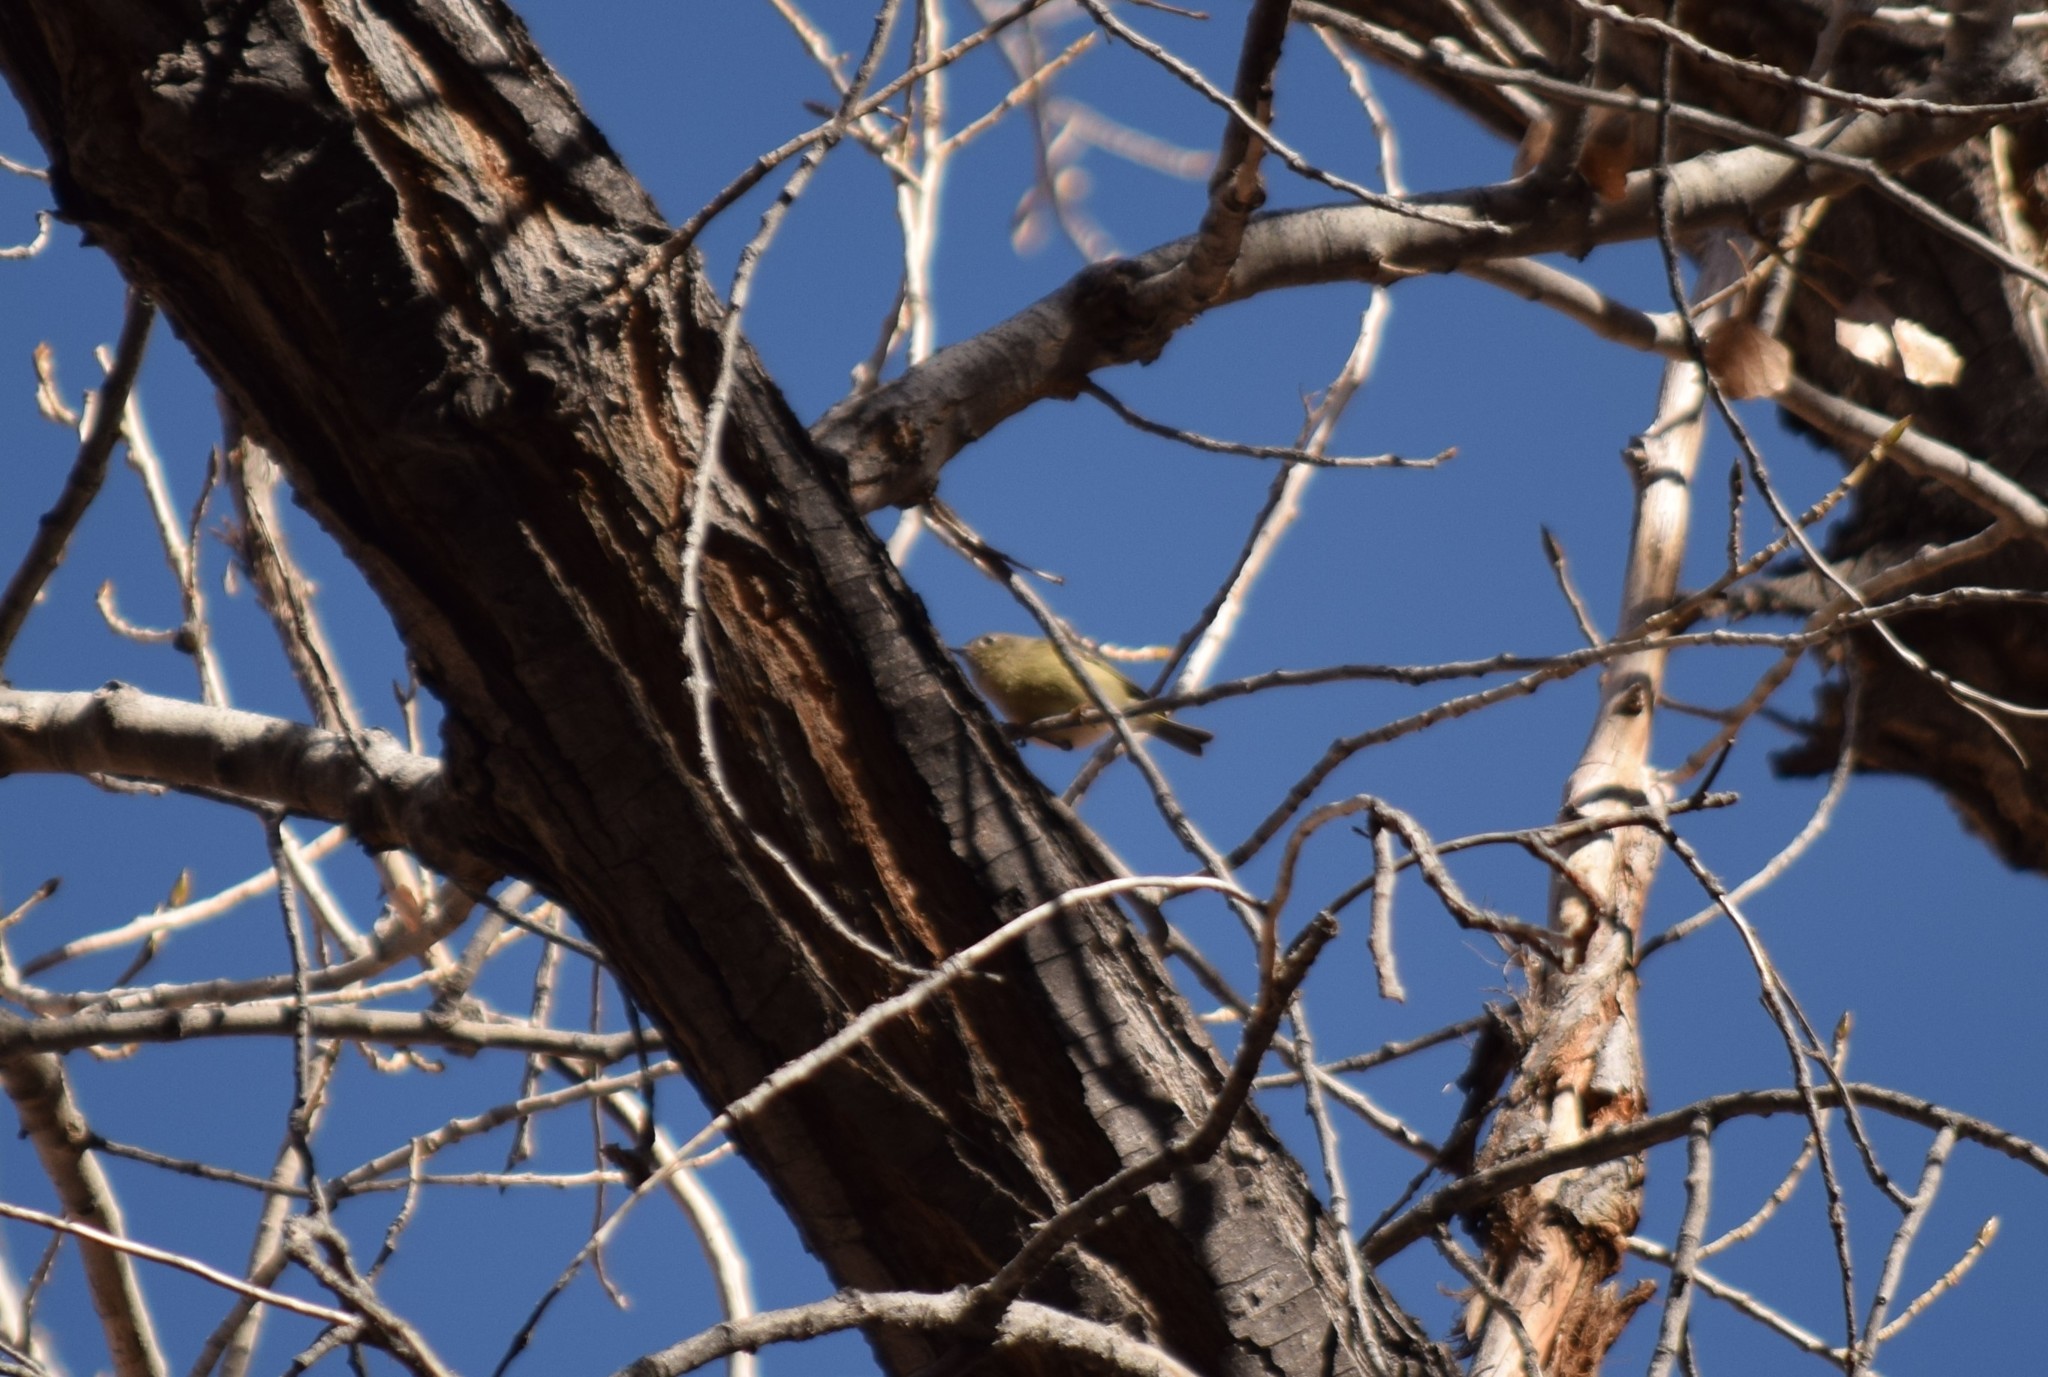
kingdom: Animalia
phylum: Chordata
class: Aves
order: Passeriformes
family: Regulidae
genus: Regulus
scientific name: Regulus calendula
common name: Ruby-crowned kinglet
